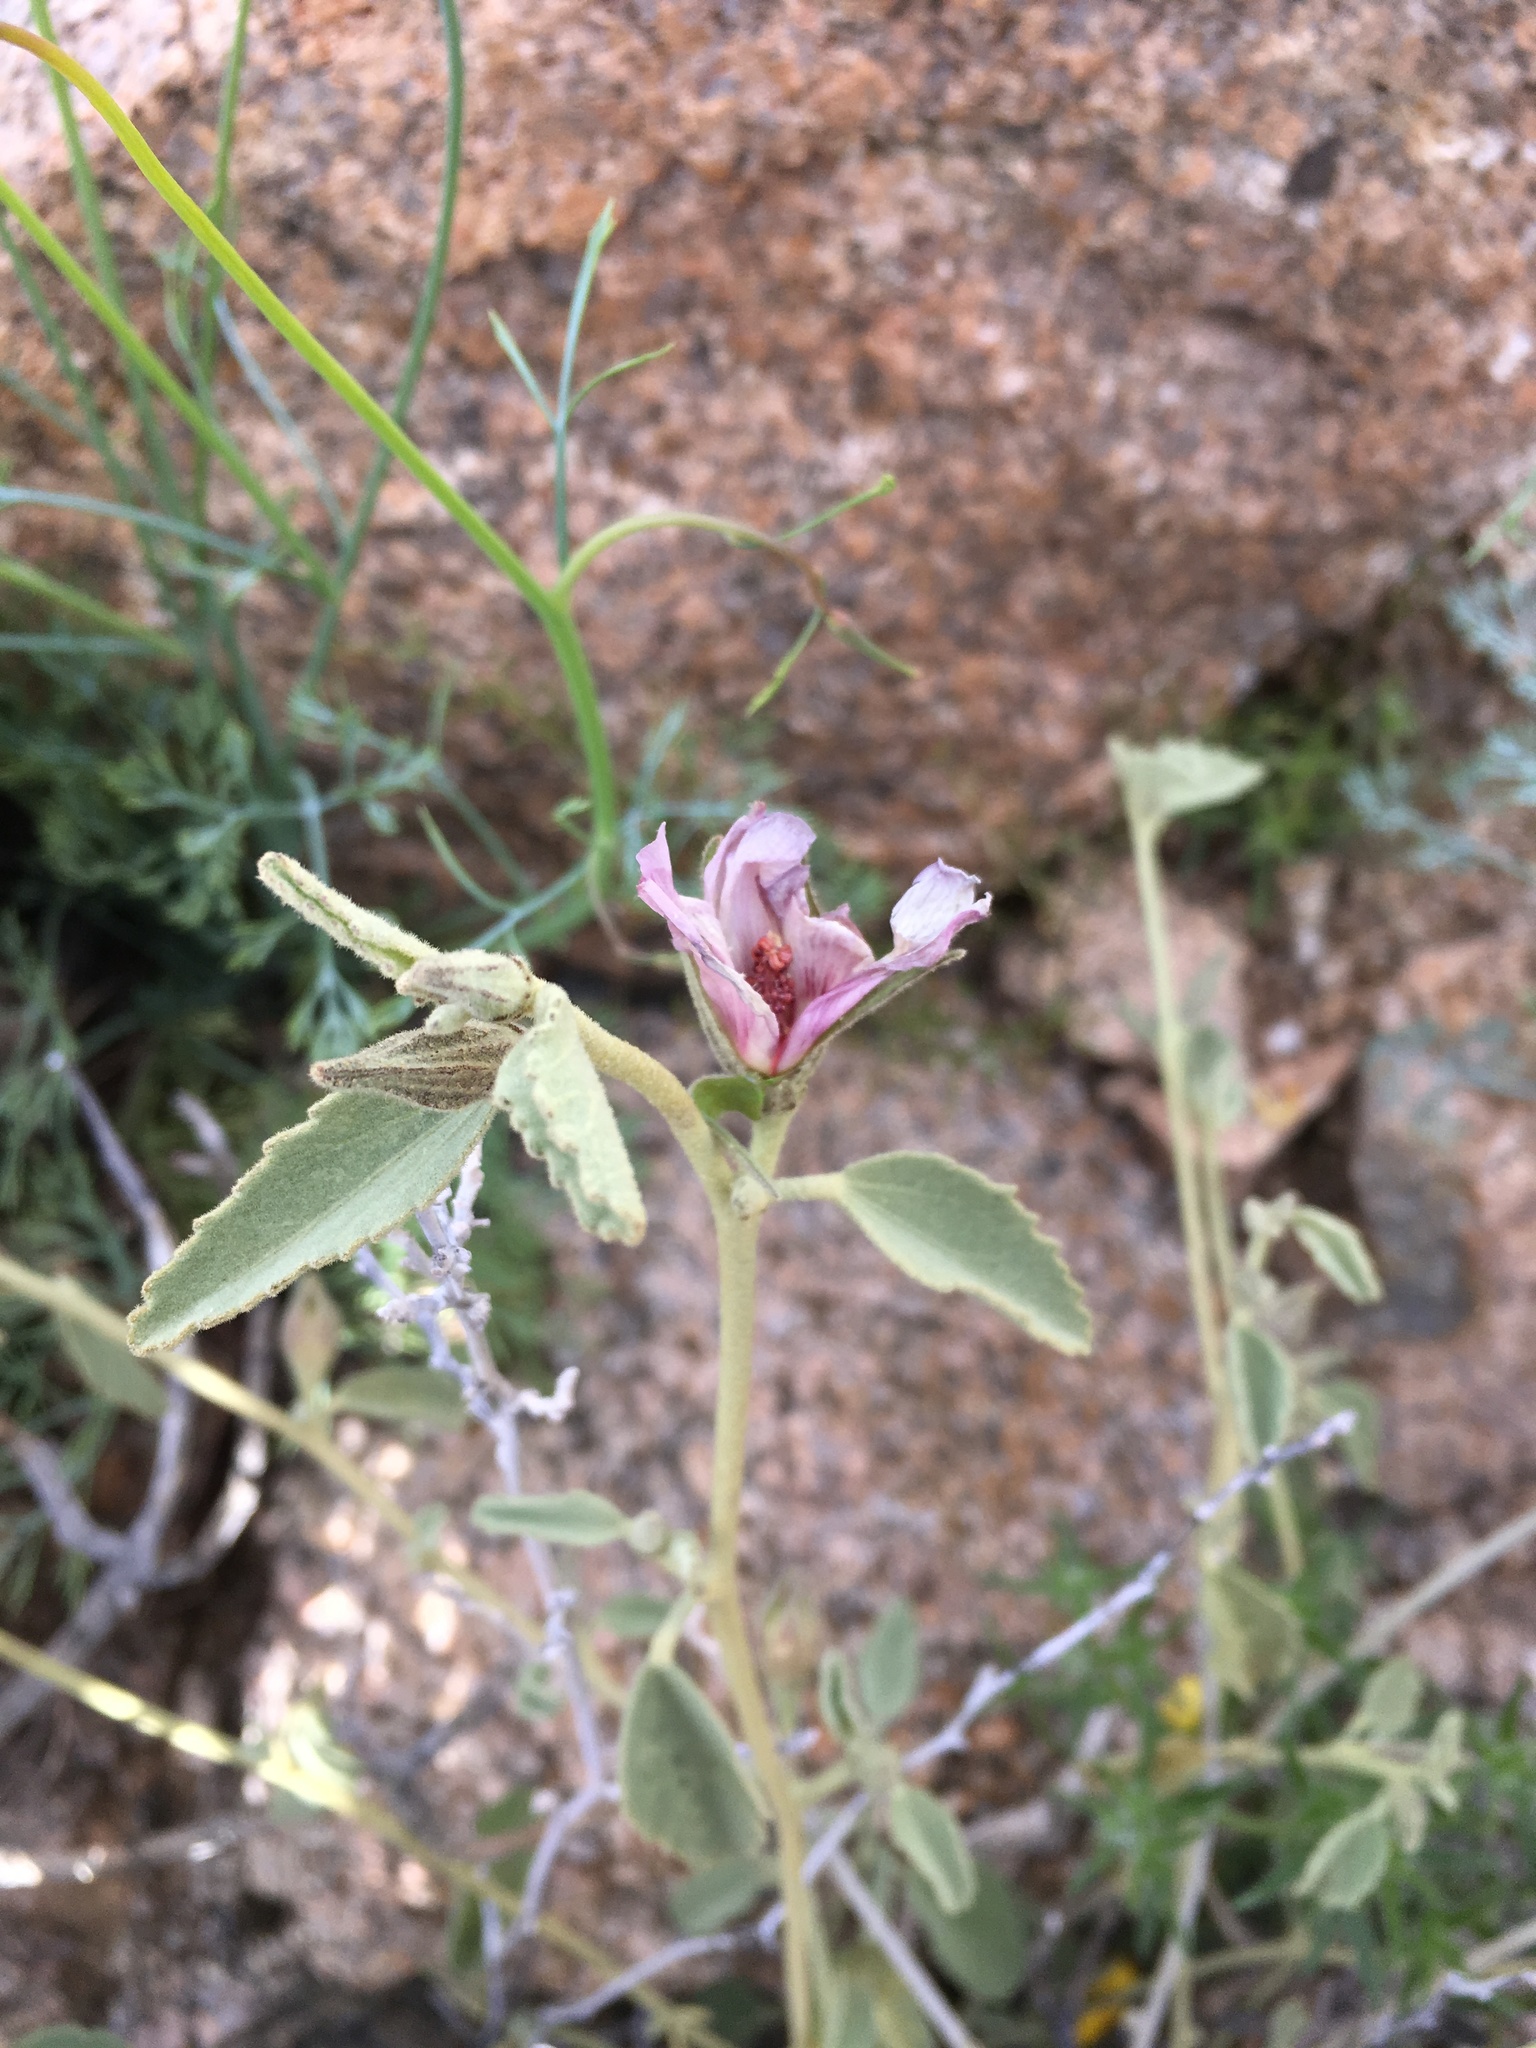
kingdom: Plantae
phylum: Tracheophyta
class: Magnoliopsida
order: Malvales
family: Malvaceae
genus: Hibiscus
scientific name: Hibiscus denudatus
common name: Paleface
